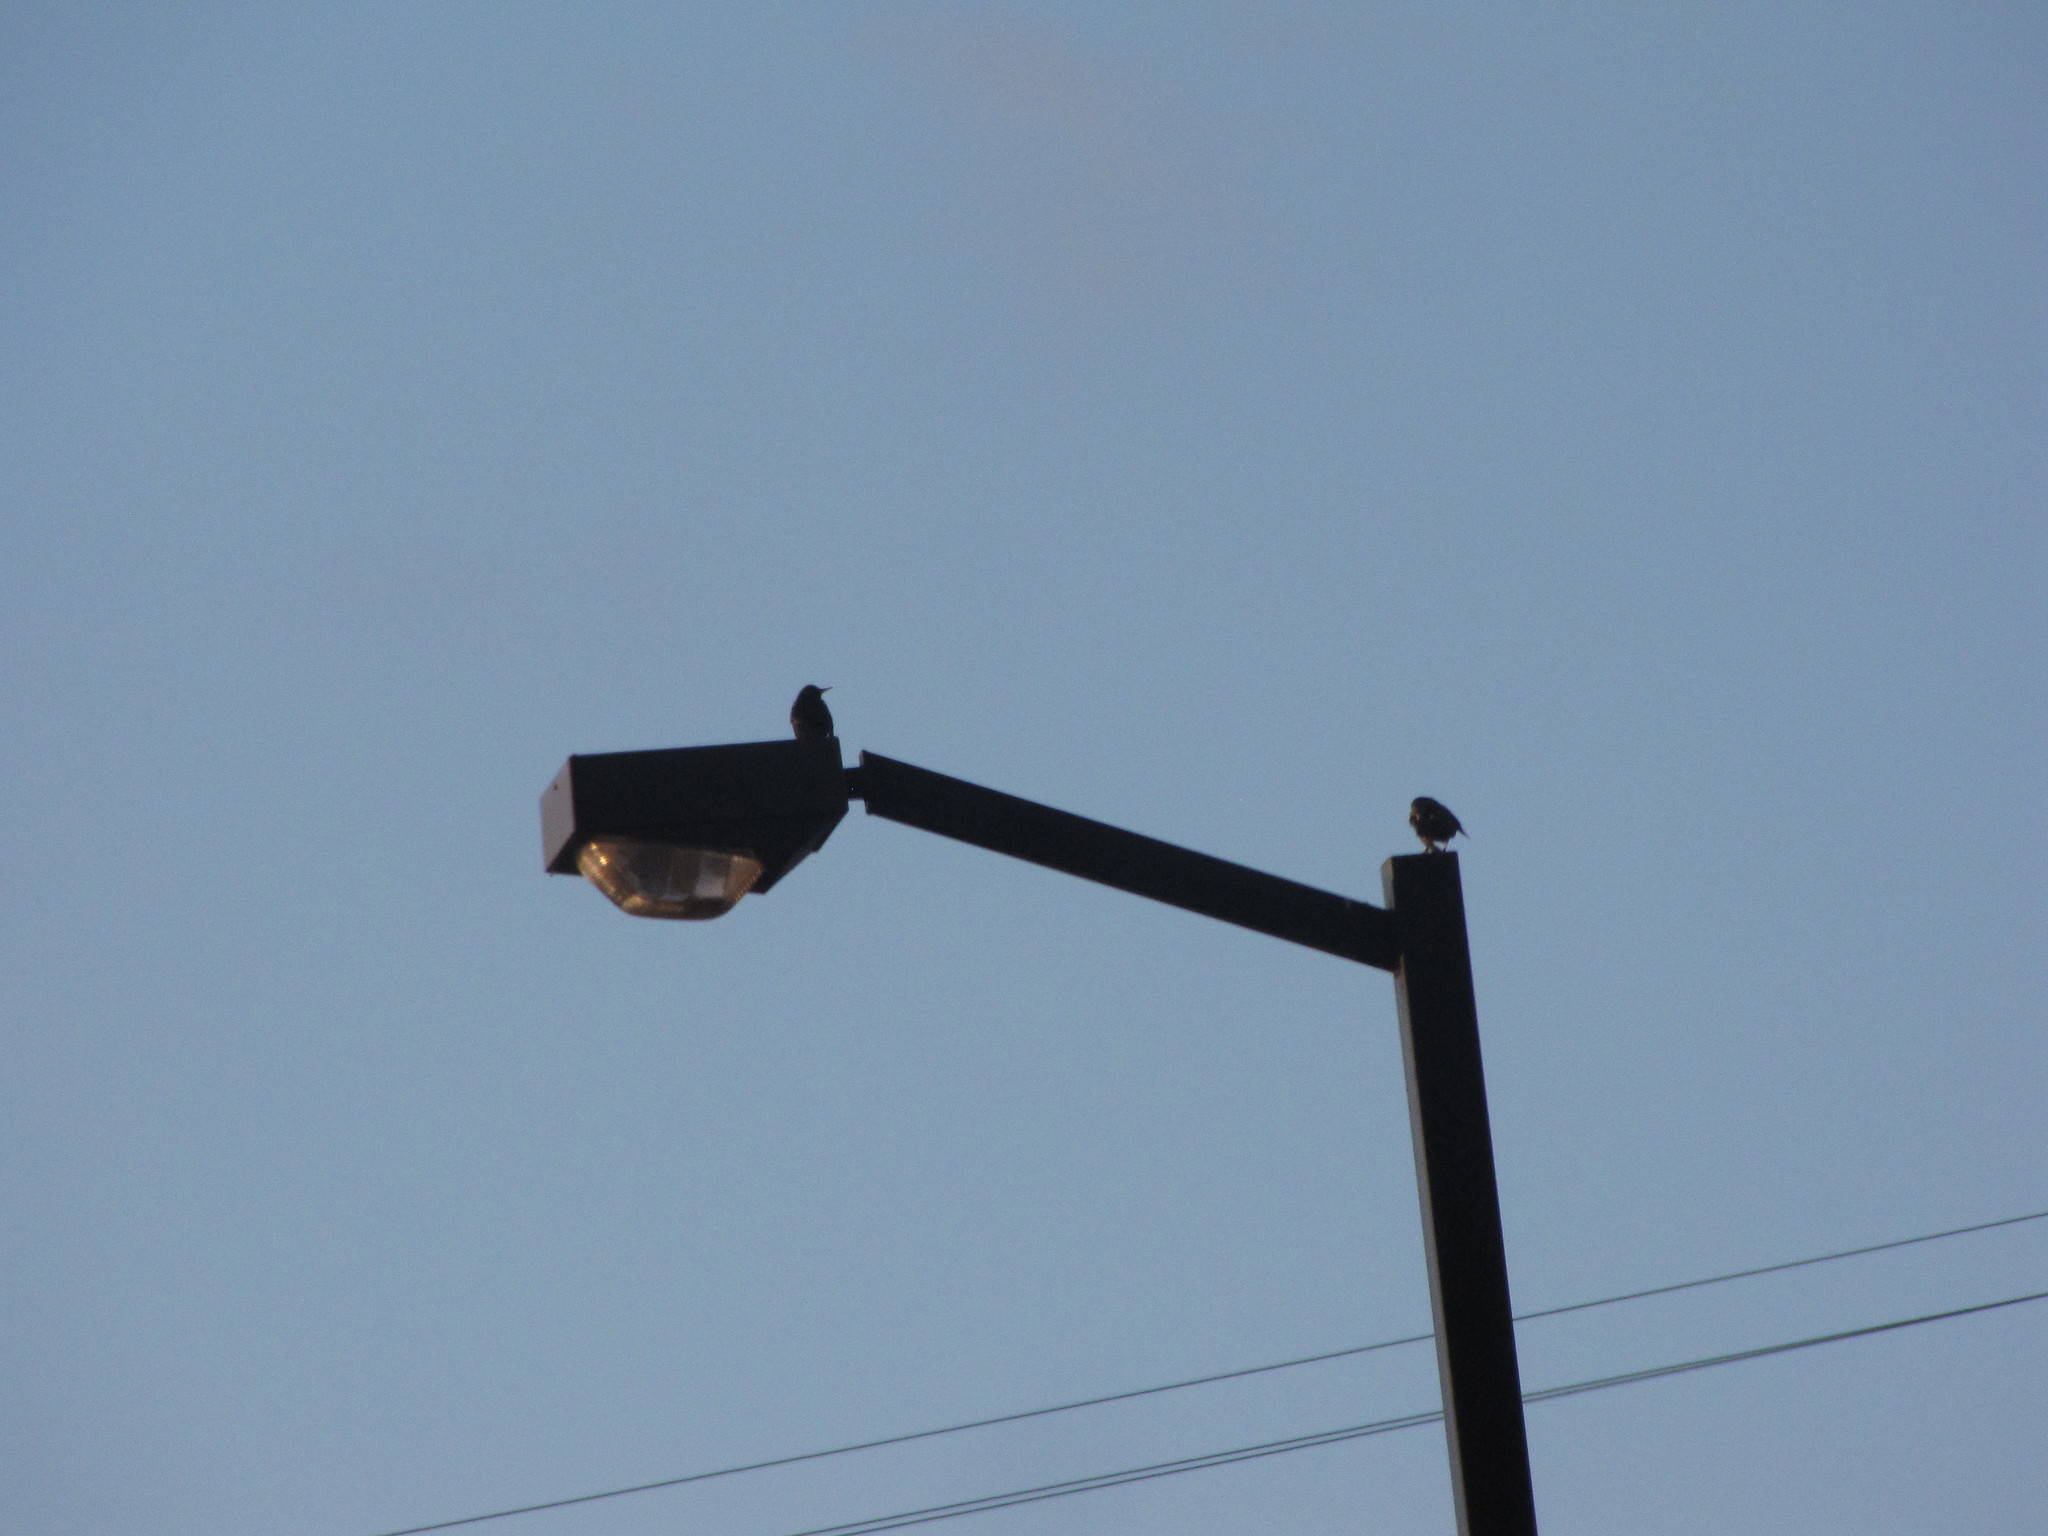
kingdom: Animalia
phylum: Chordata
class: Aves
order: Passeriformes
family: Sturnidae
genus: Sturnus
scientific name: Sturnus vulgaris
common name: Common starling
